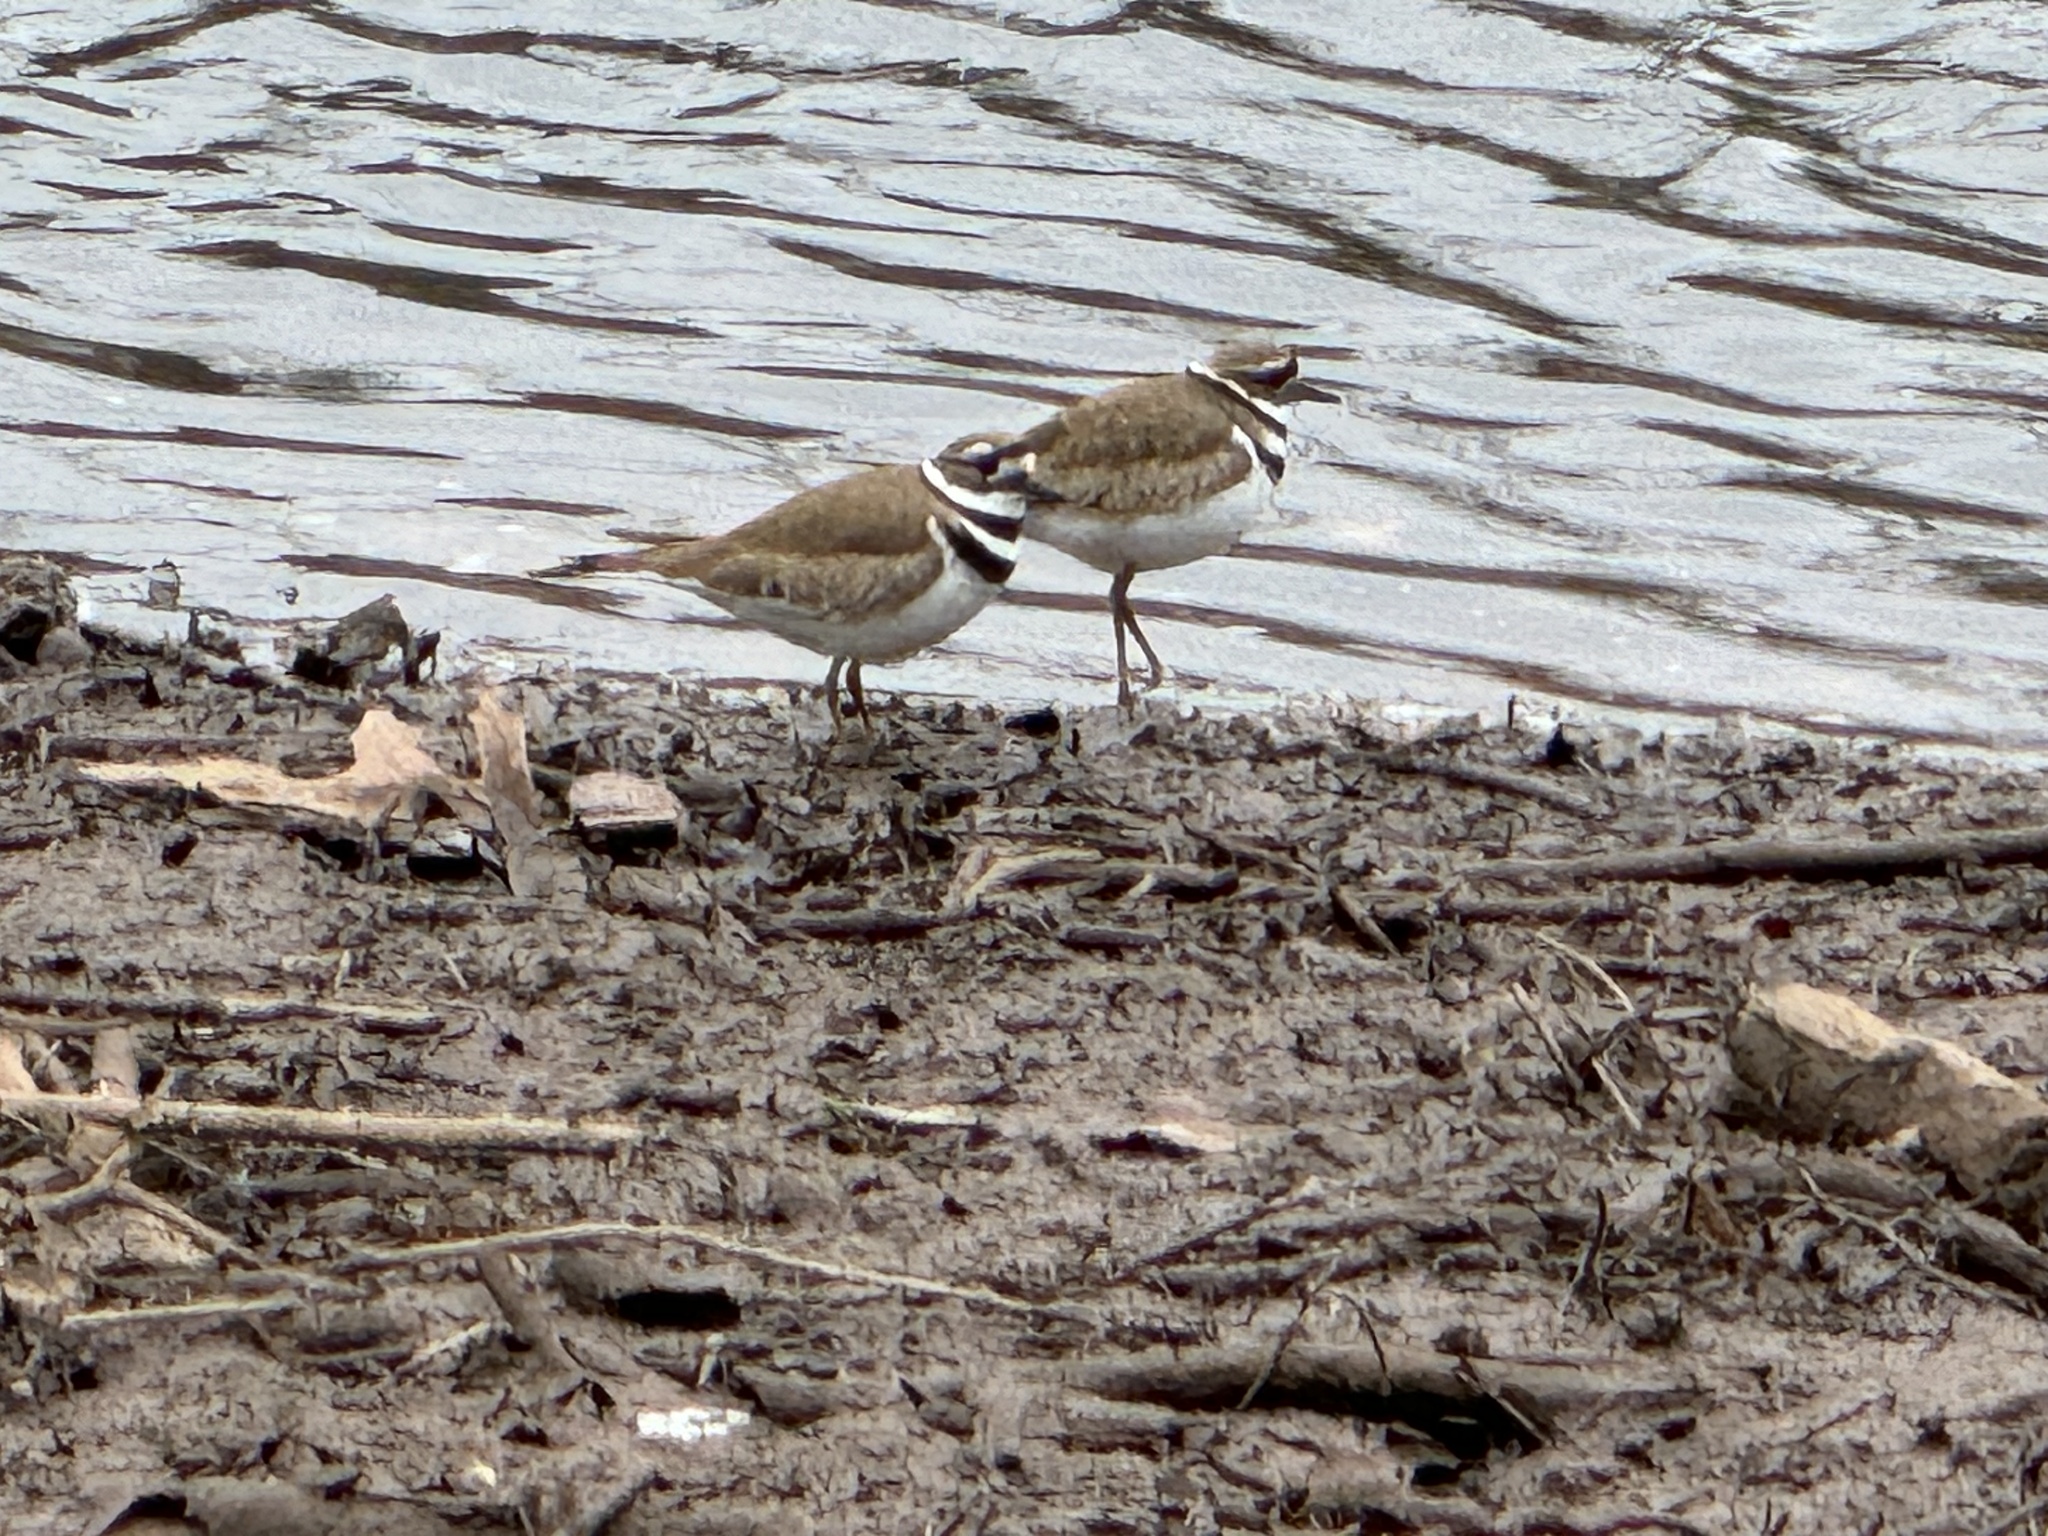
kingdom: Animalia
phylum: Chordata
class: Aves
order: Charadriiformes
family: Charadriidae
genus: Charadrius
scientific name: Charadrius vociferus
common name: Killdeer
